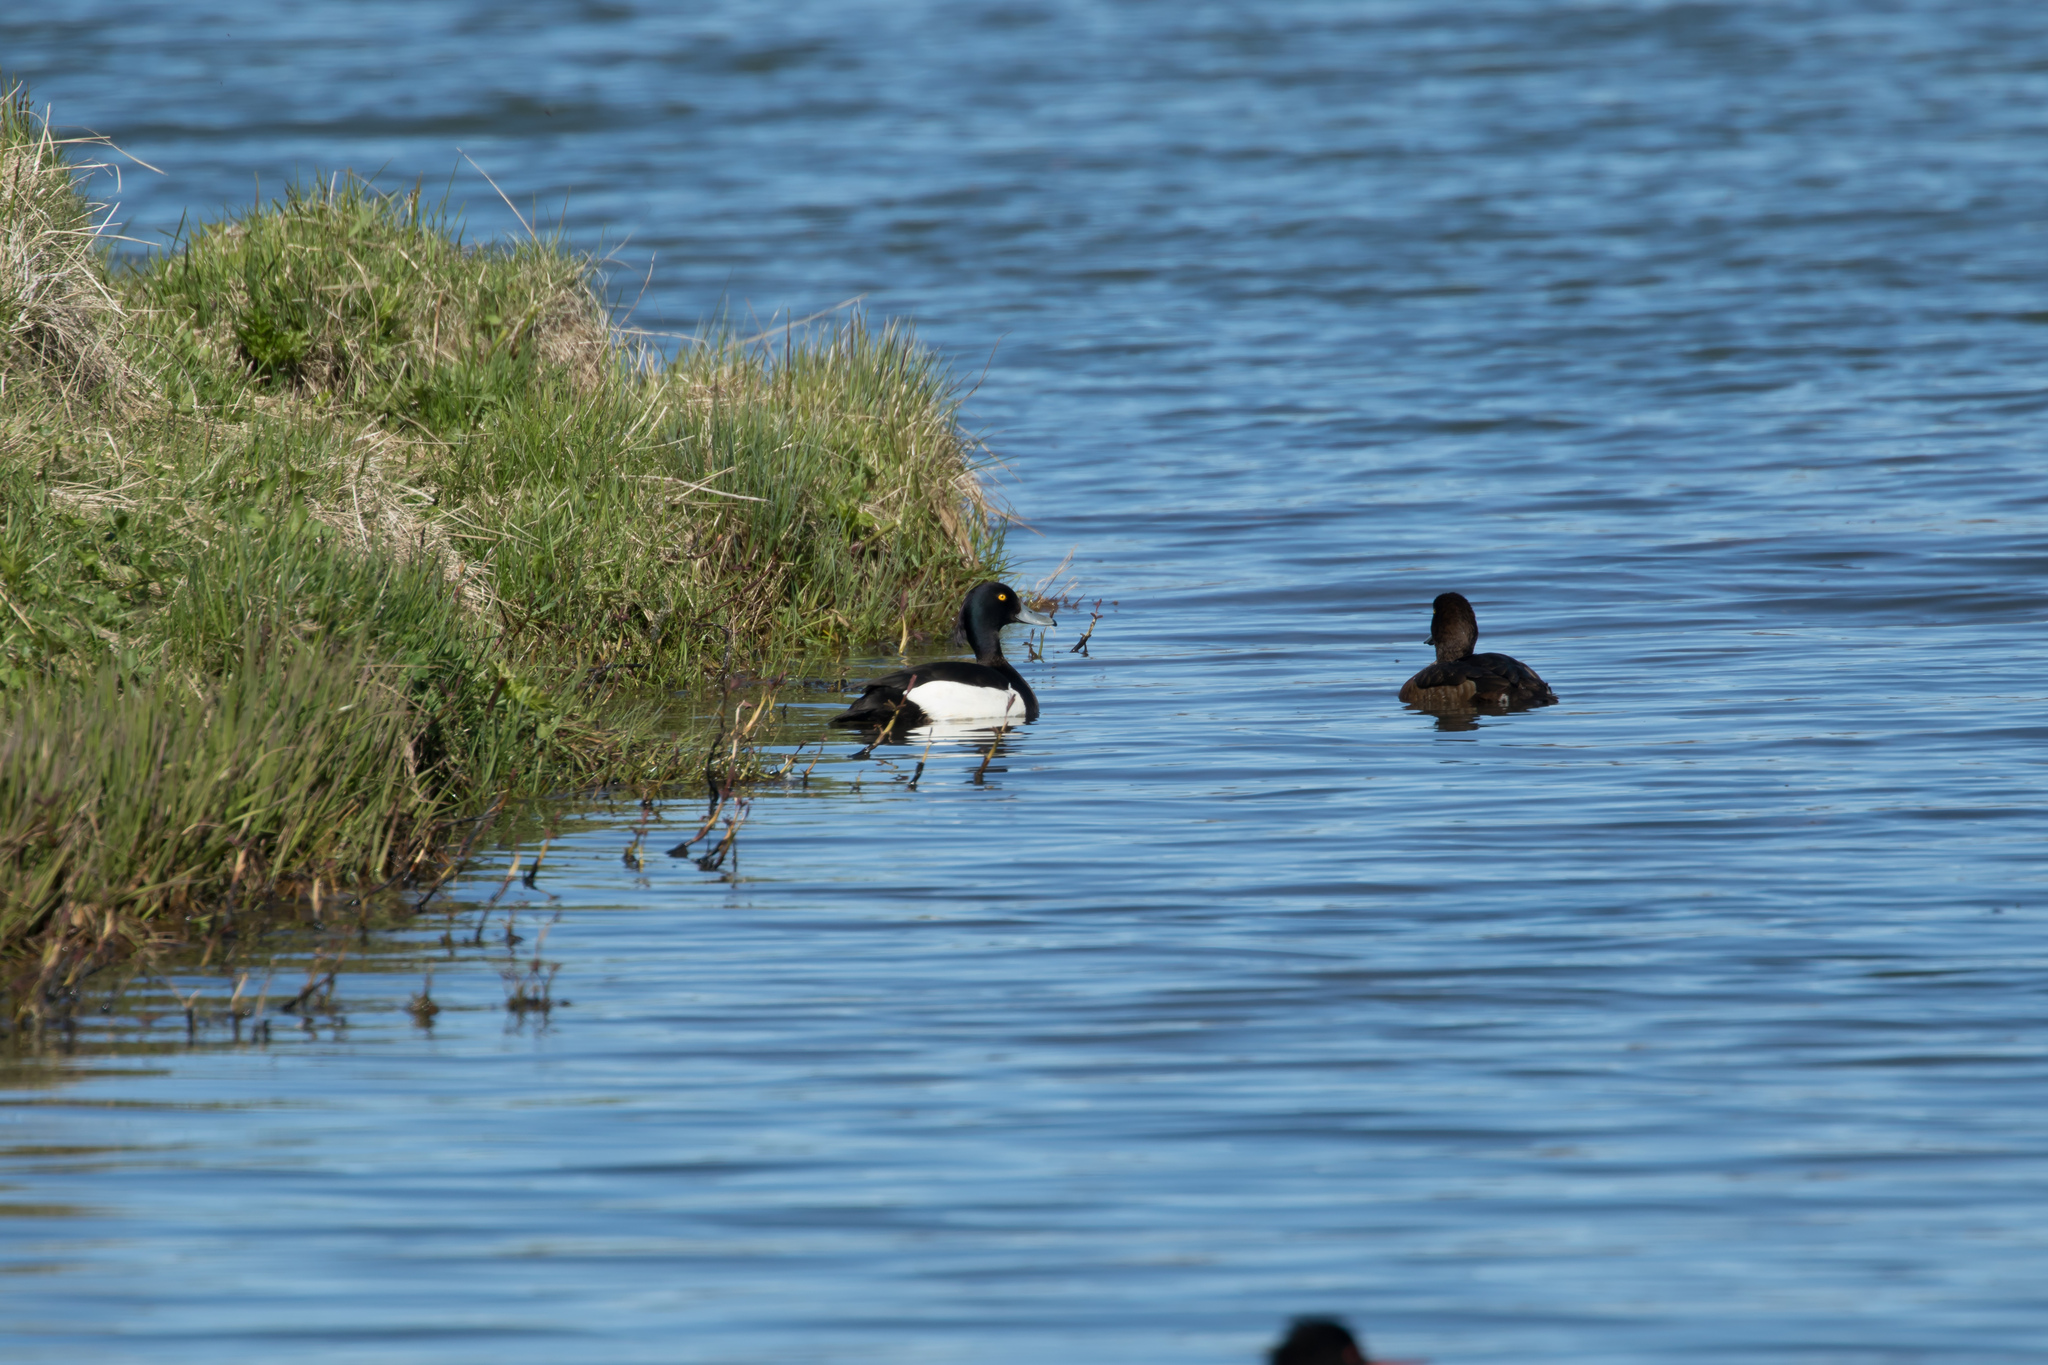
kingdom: Animalia
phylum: Chordata
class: Aves
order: Anseriformes
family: Anatidae
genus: Aythya
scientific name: Aythya fuligula
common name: Tufted duck
